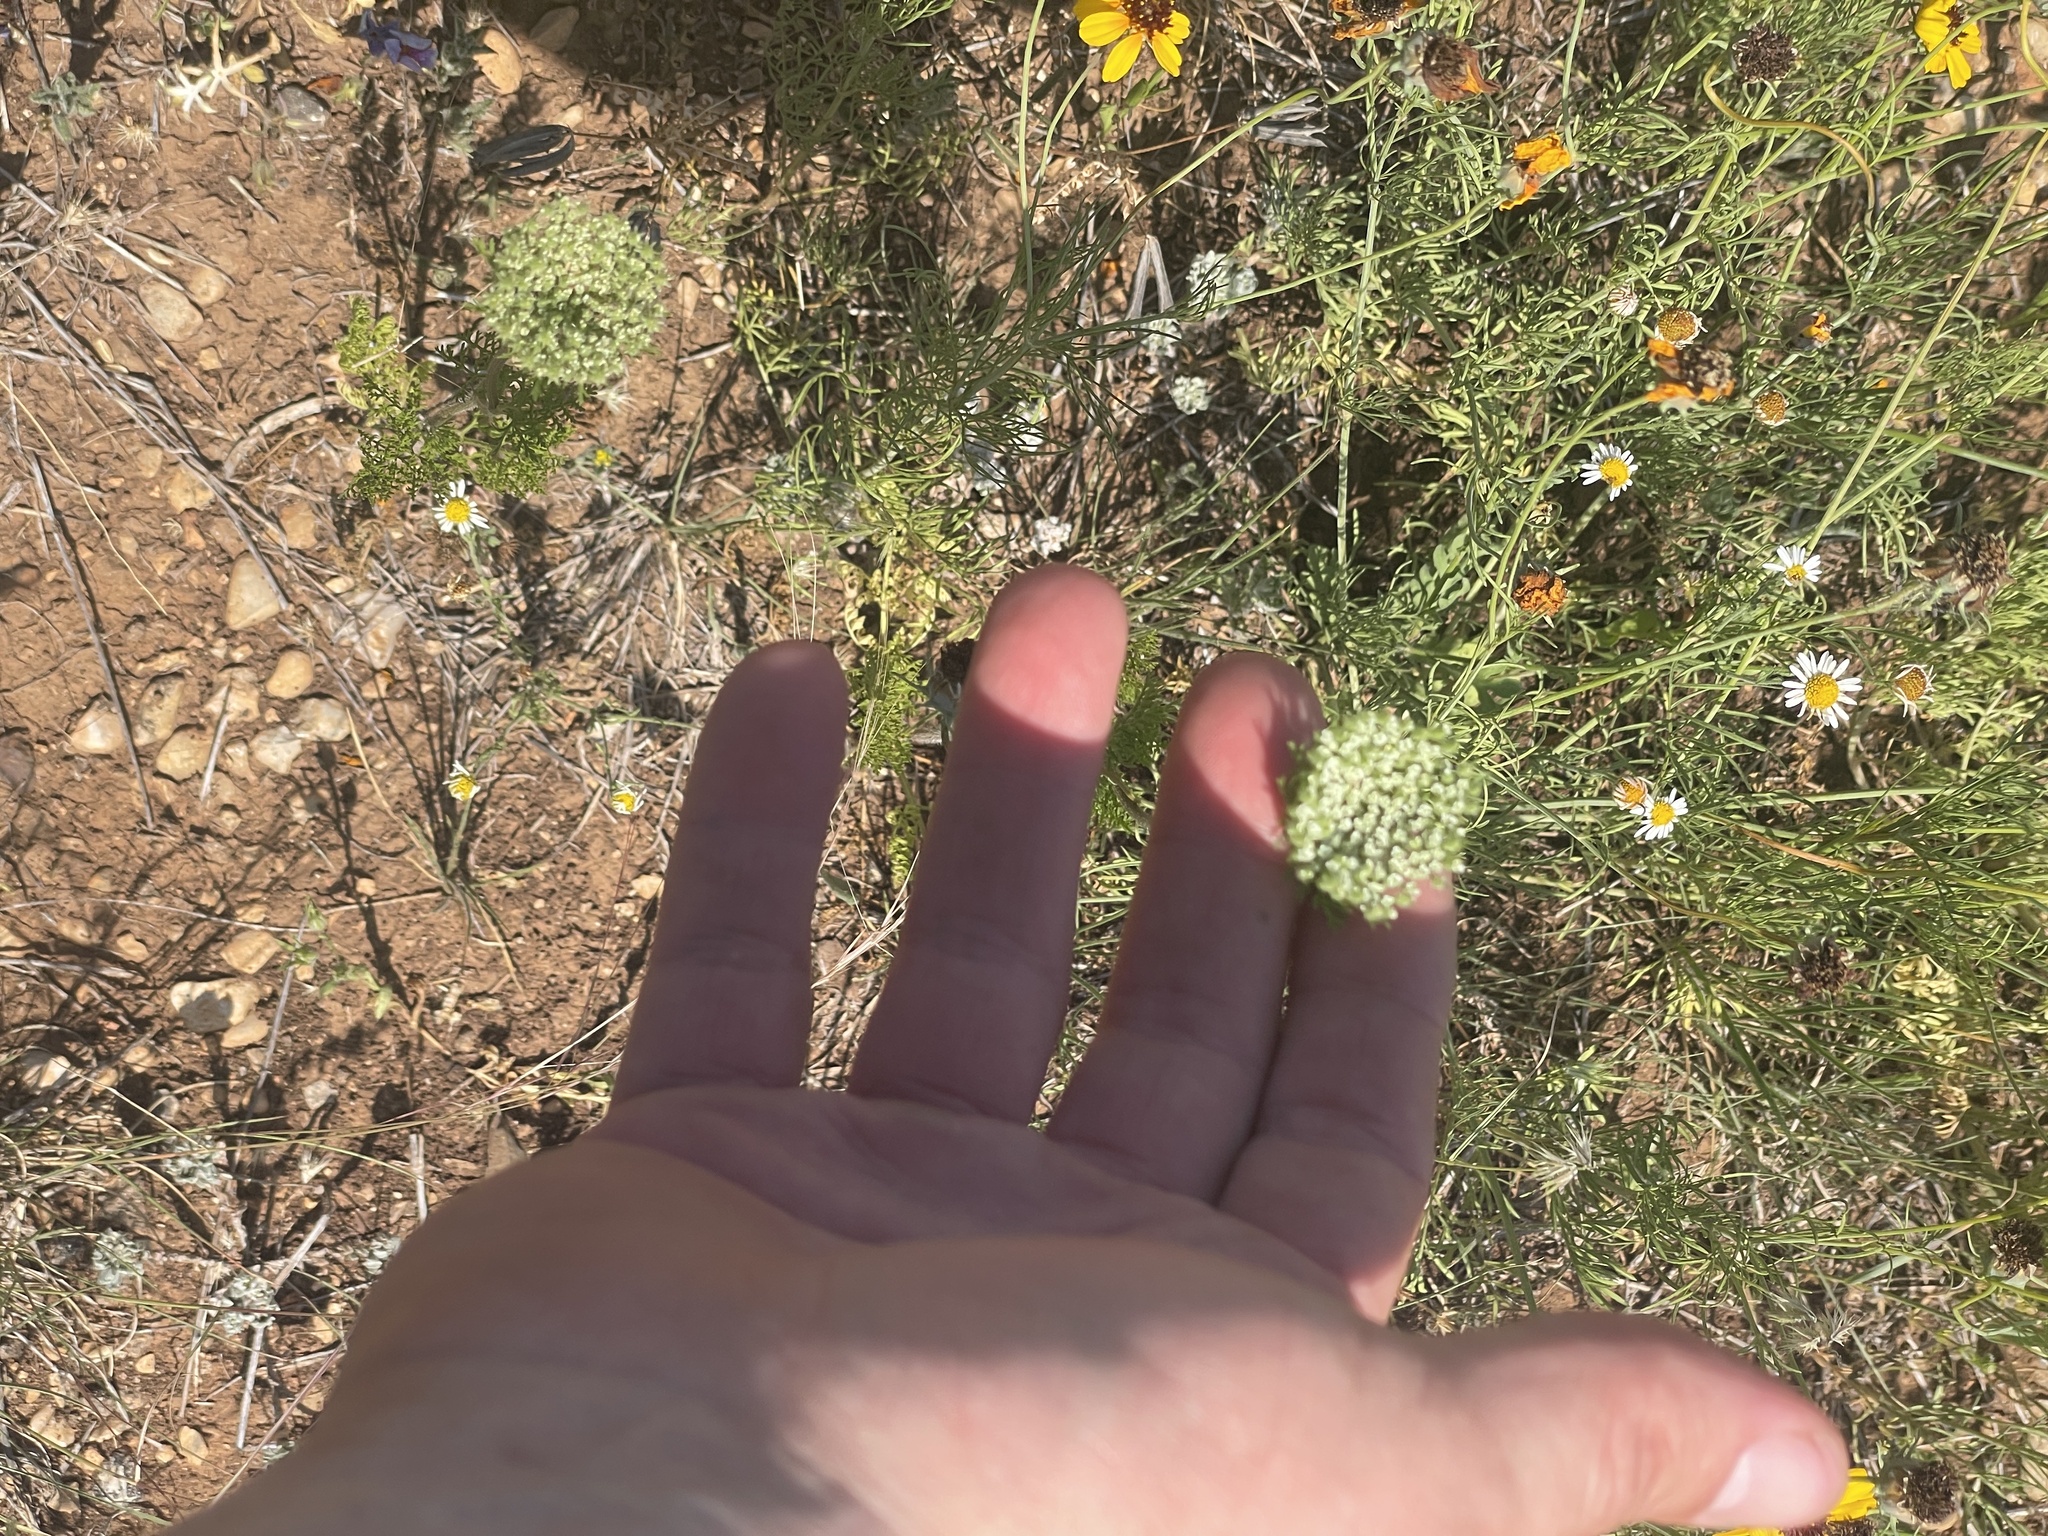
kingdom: Plantae
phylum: Tracheophyta
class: Magnoliopsida
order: Apiales
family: Apiaceae
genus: Daucus
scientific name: Daucus pusillus
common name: Southwest wild carrot
